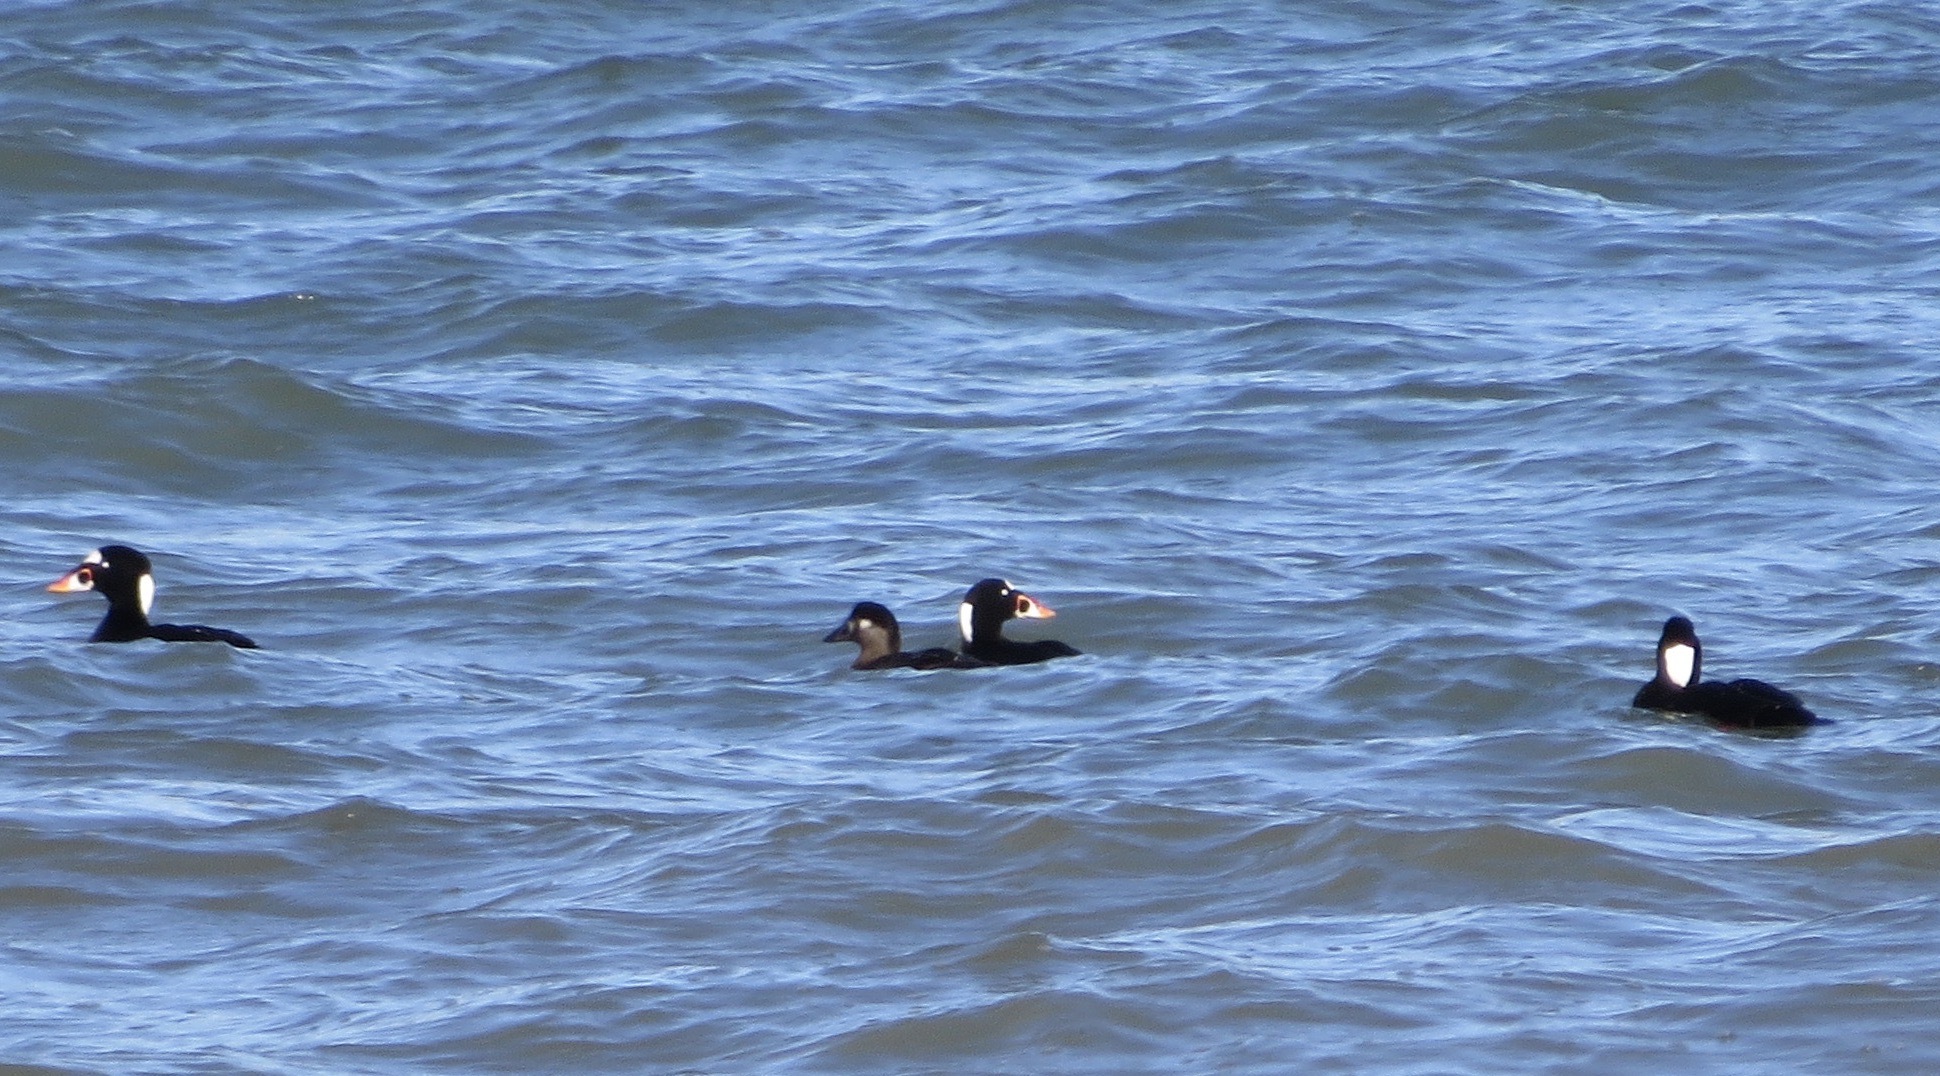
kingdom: Animalia
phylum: Chordata
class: Aves
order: Anseriformes
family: Anatidae
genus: Melanitta
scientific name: Melanitta perspicillata
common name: Surf scoter
